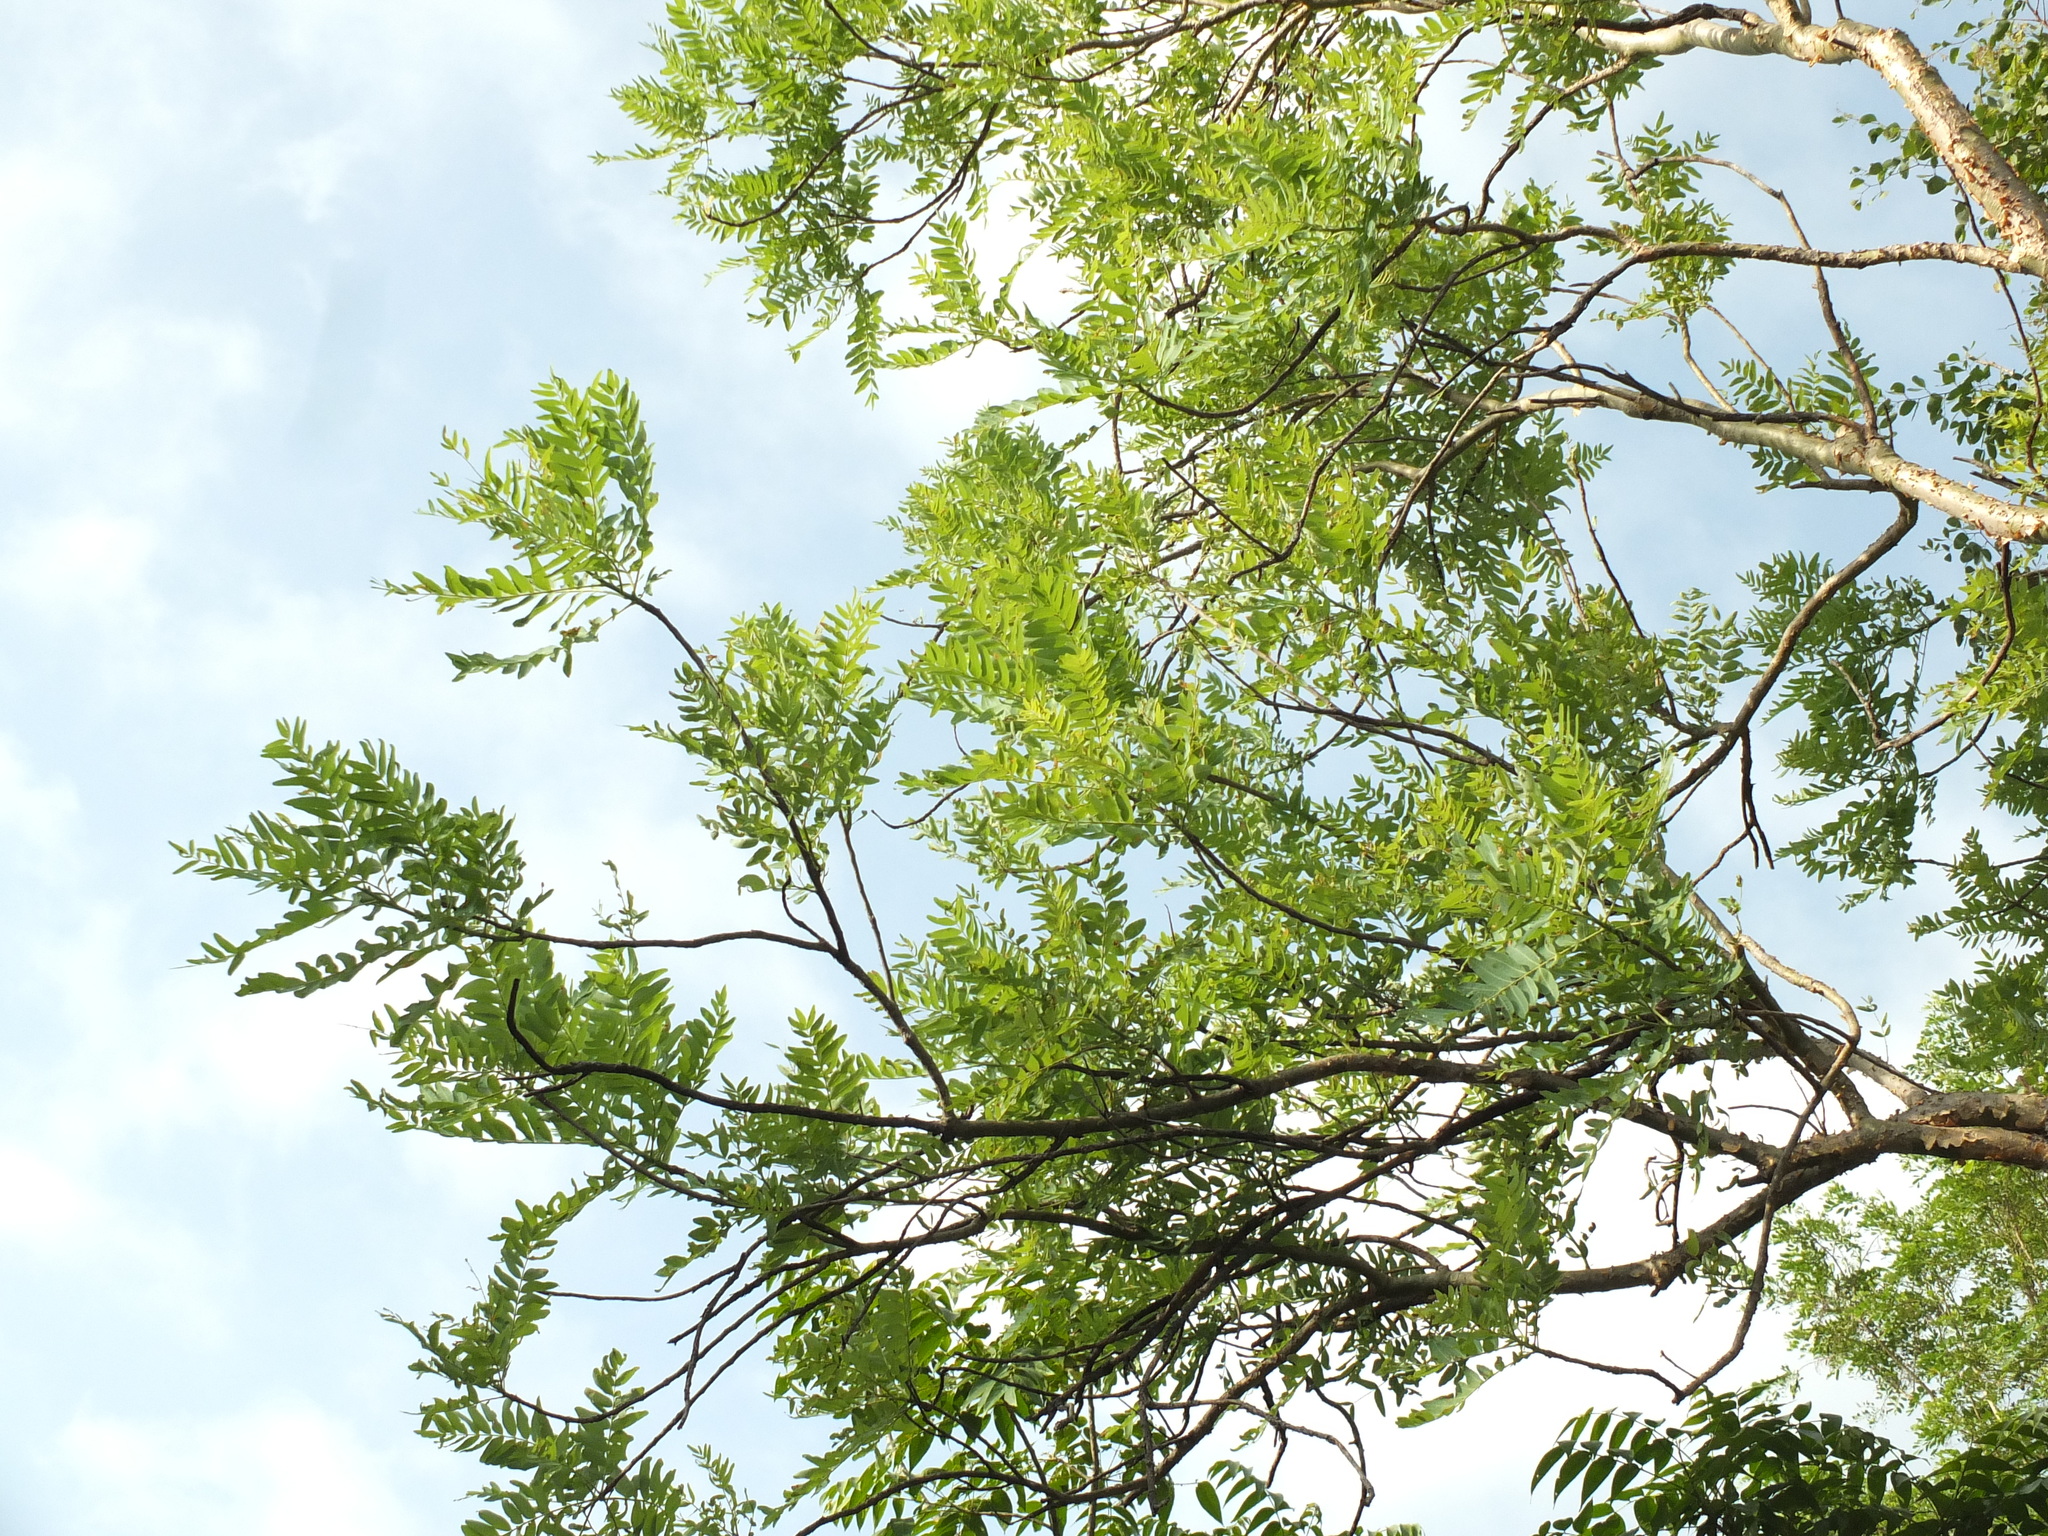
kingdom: Plantae
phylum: Tracheophyta
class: Magnoliopsida
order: Sapindales
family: Burseraceae
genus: Boswellia
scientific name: Boswellia serrata
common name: Boswellia
